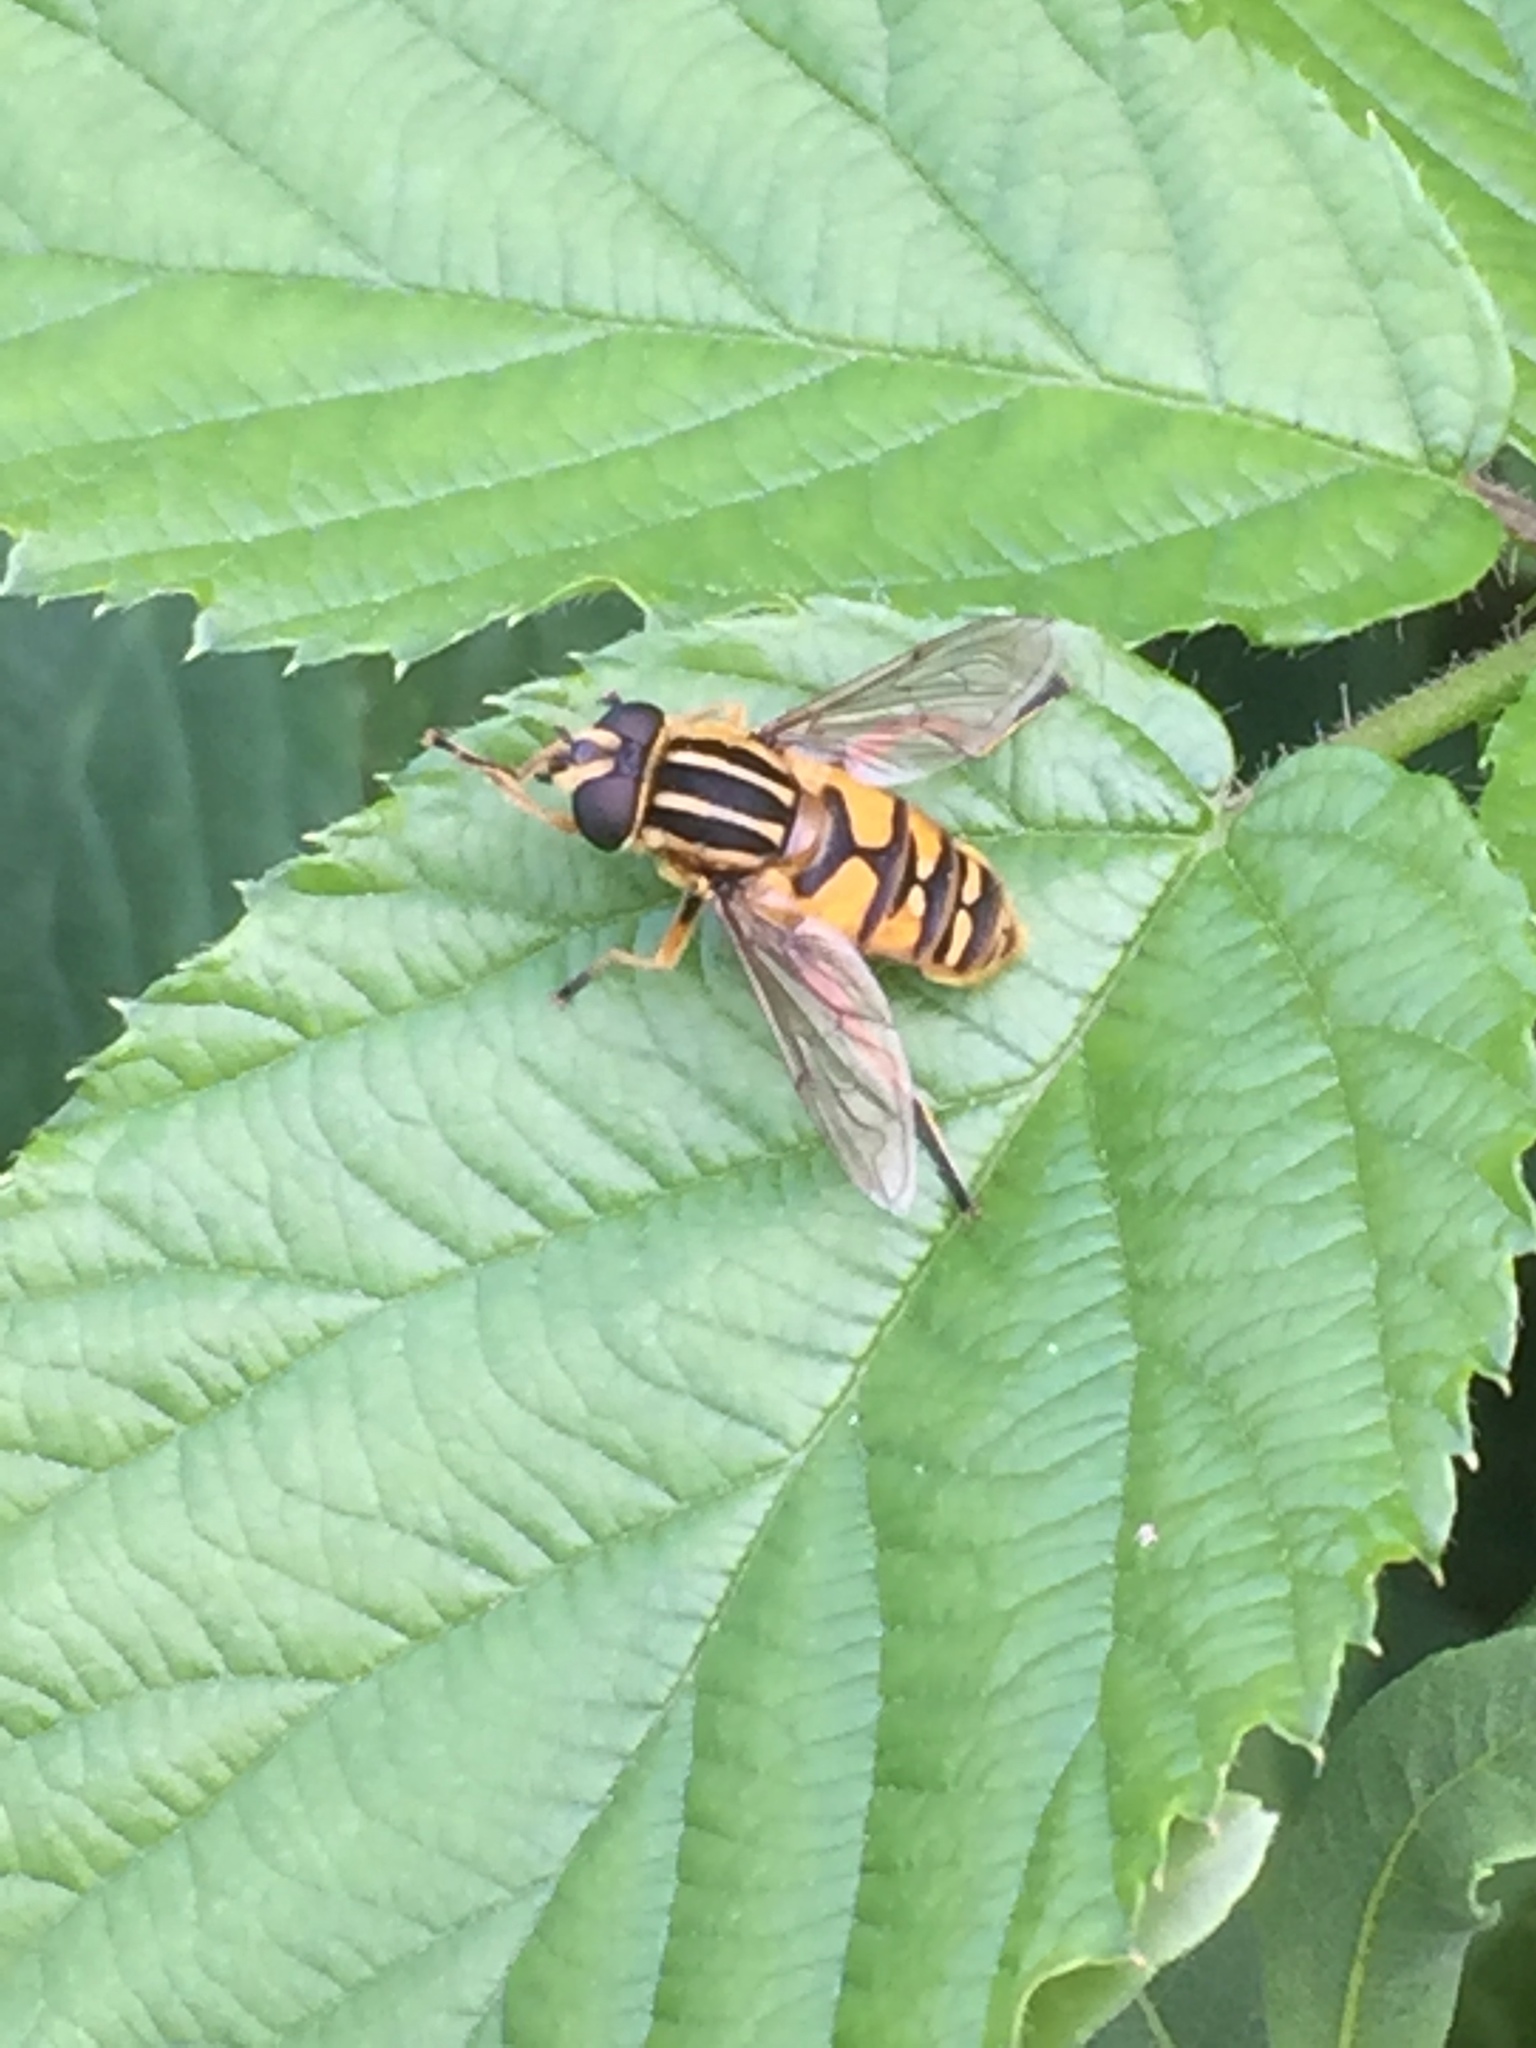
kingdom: Animalia
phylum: Arthropoda
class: Insecta
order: Diptera
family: Syrphidae
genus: Helophilus
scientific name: Helophilus pendulus
